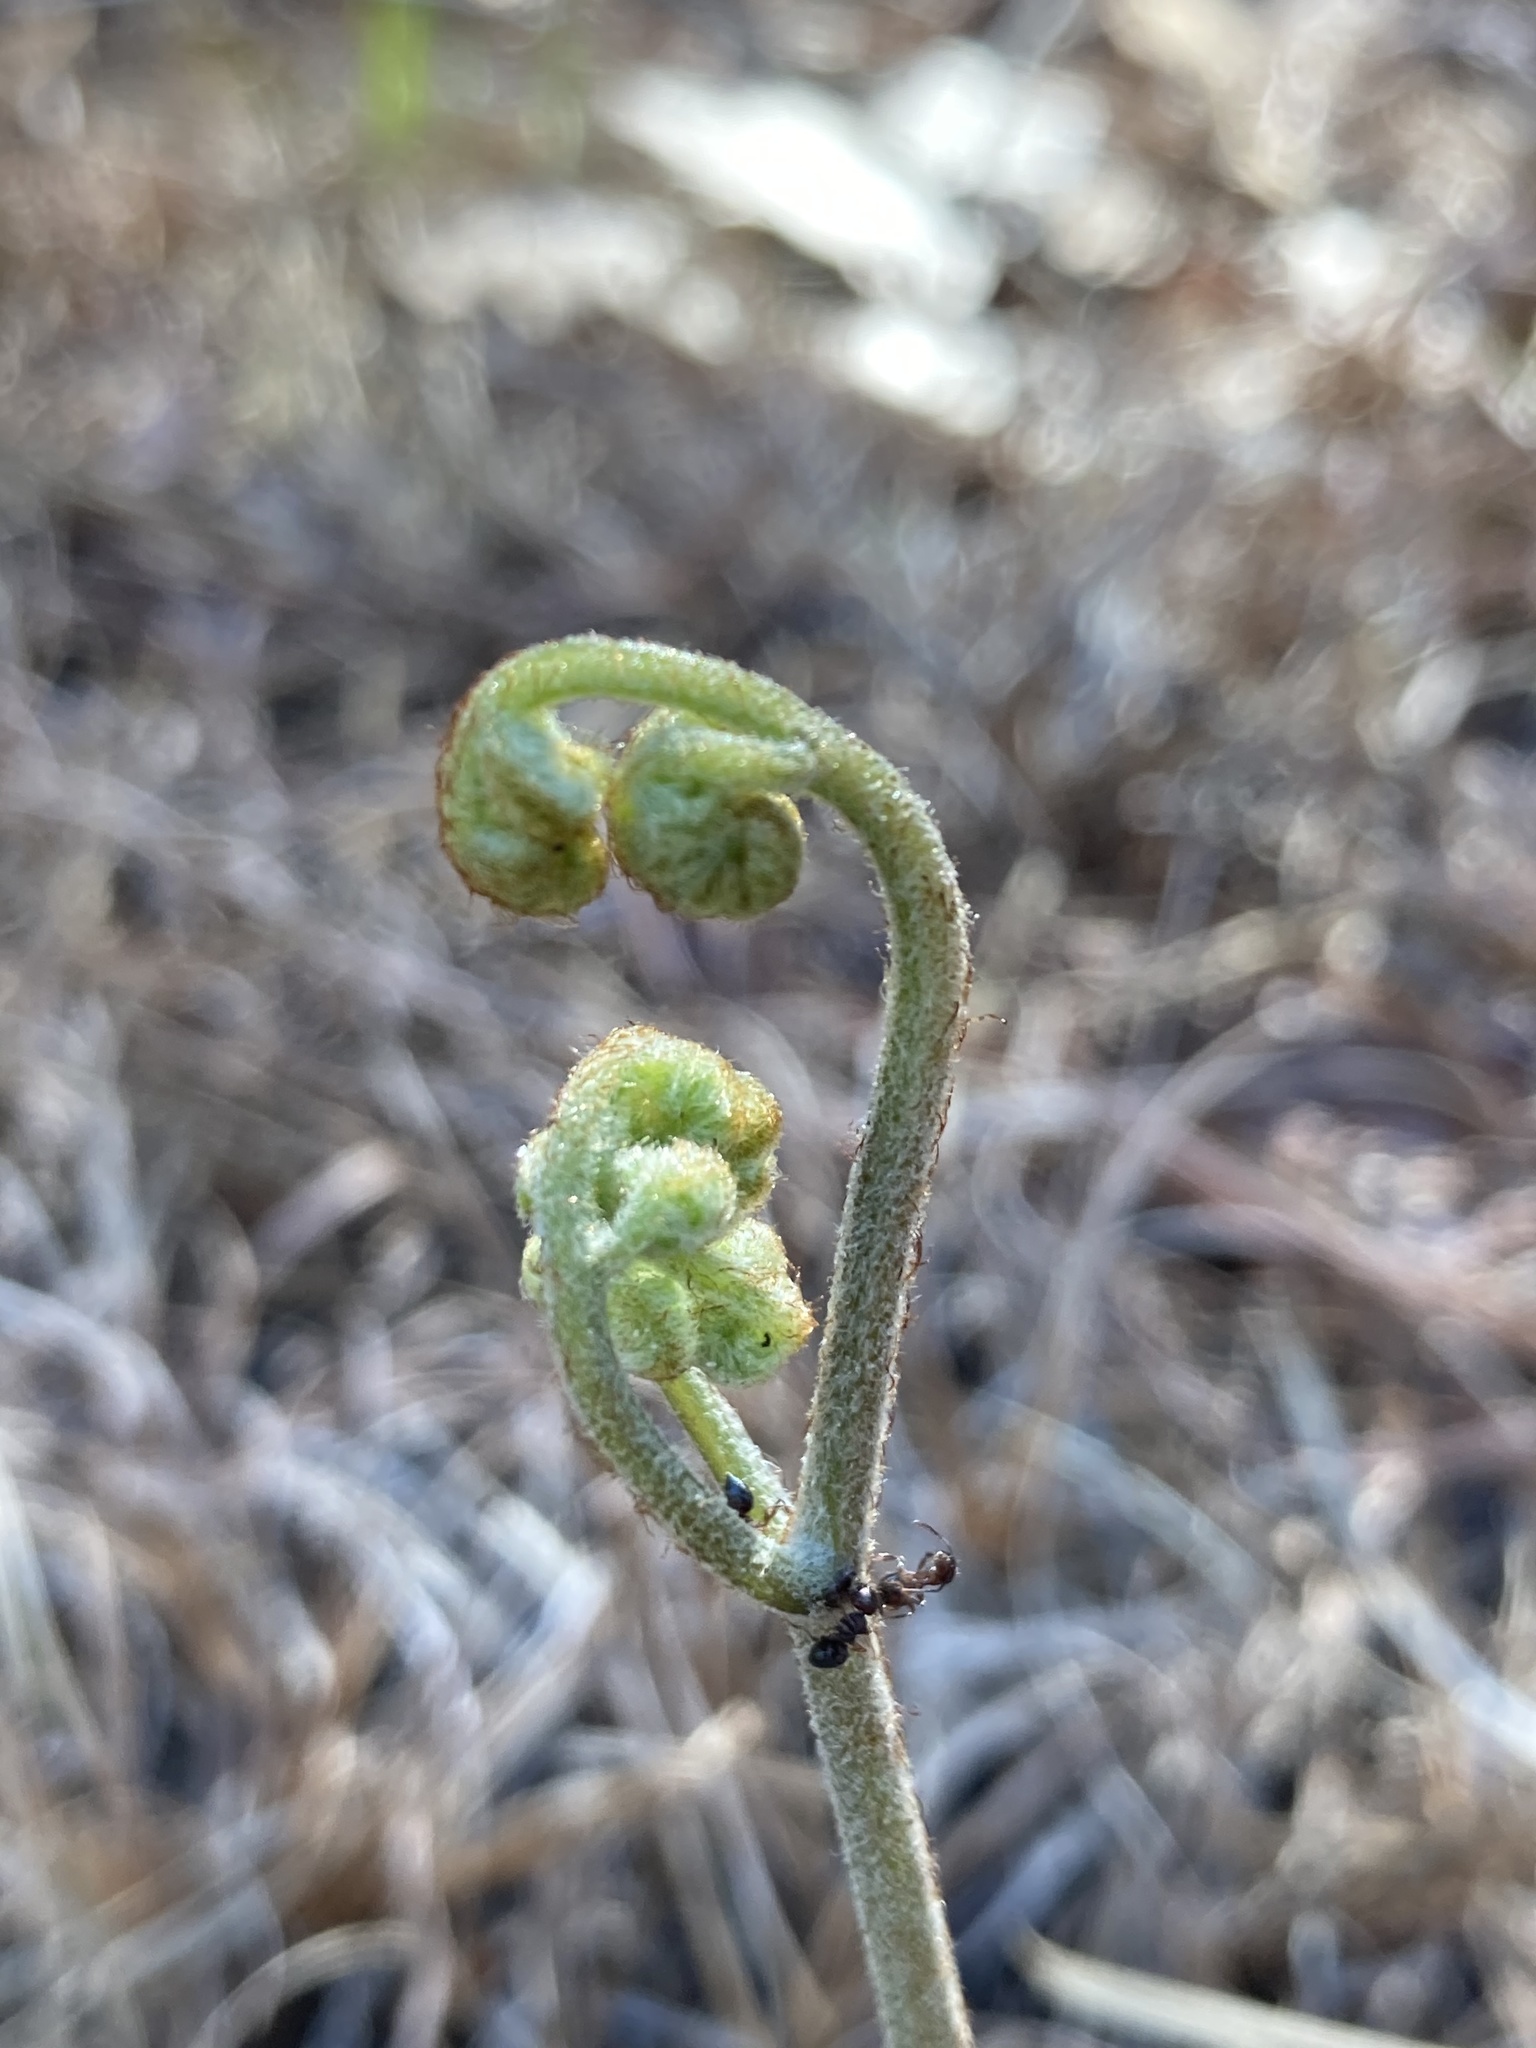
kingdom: Plantae
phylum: Tracheophyta
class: Polypodiopsida
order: Polypodiales
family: Dennstaedtiaceae
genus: Pteridium
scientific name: Pteridium aquilinum
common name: Bracken
